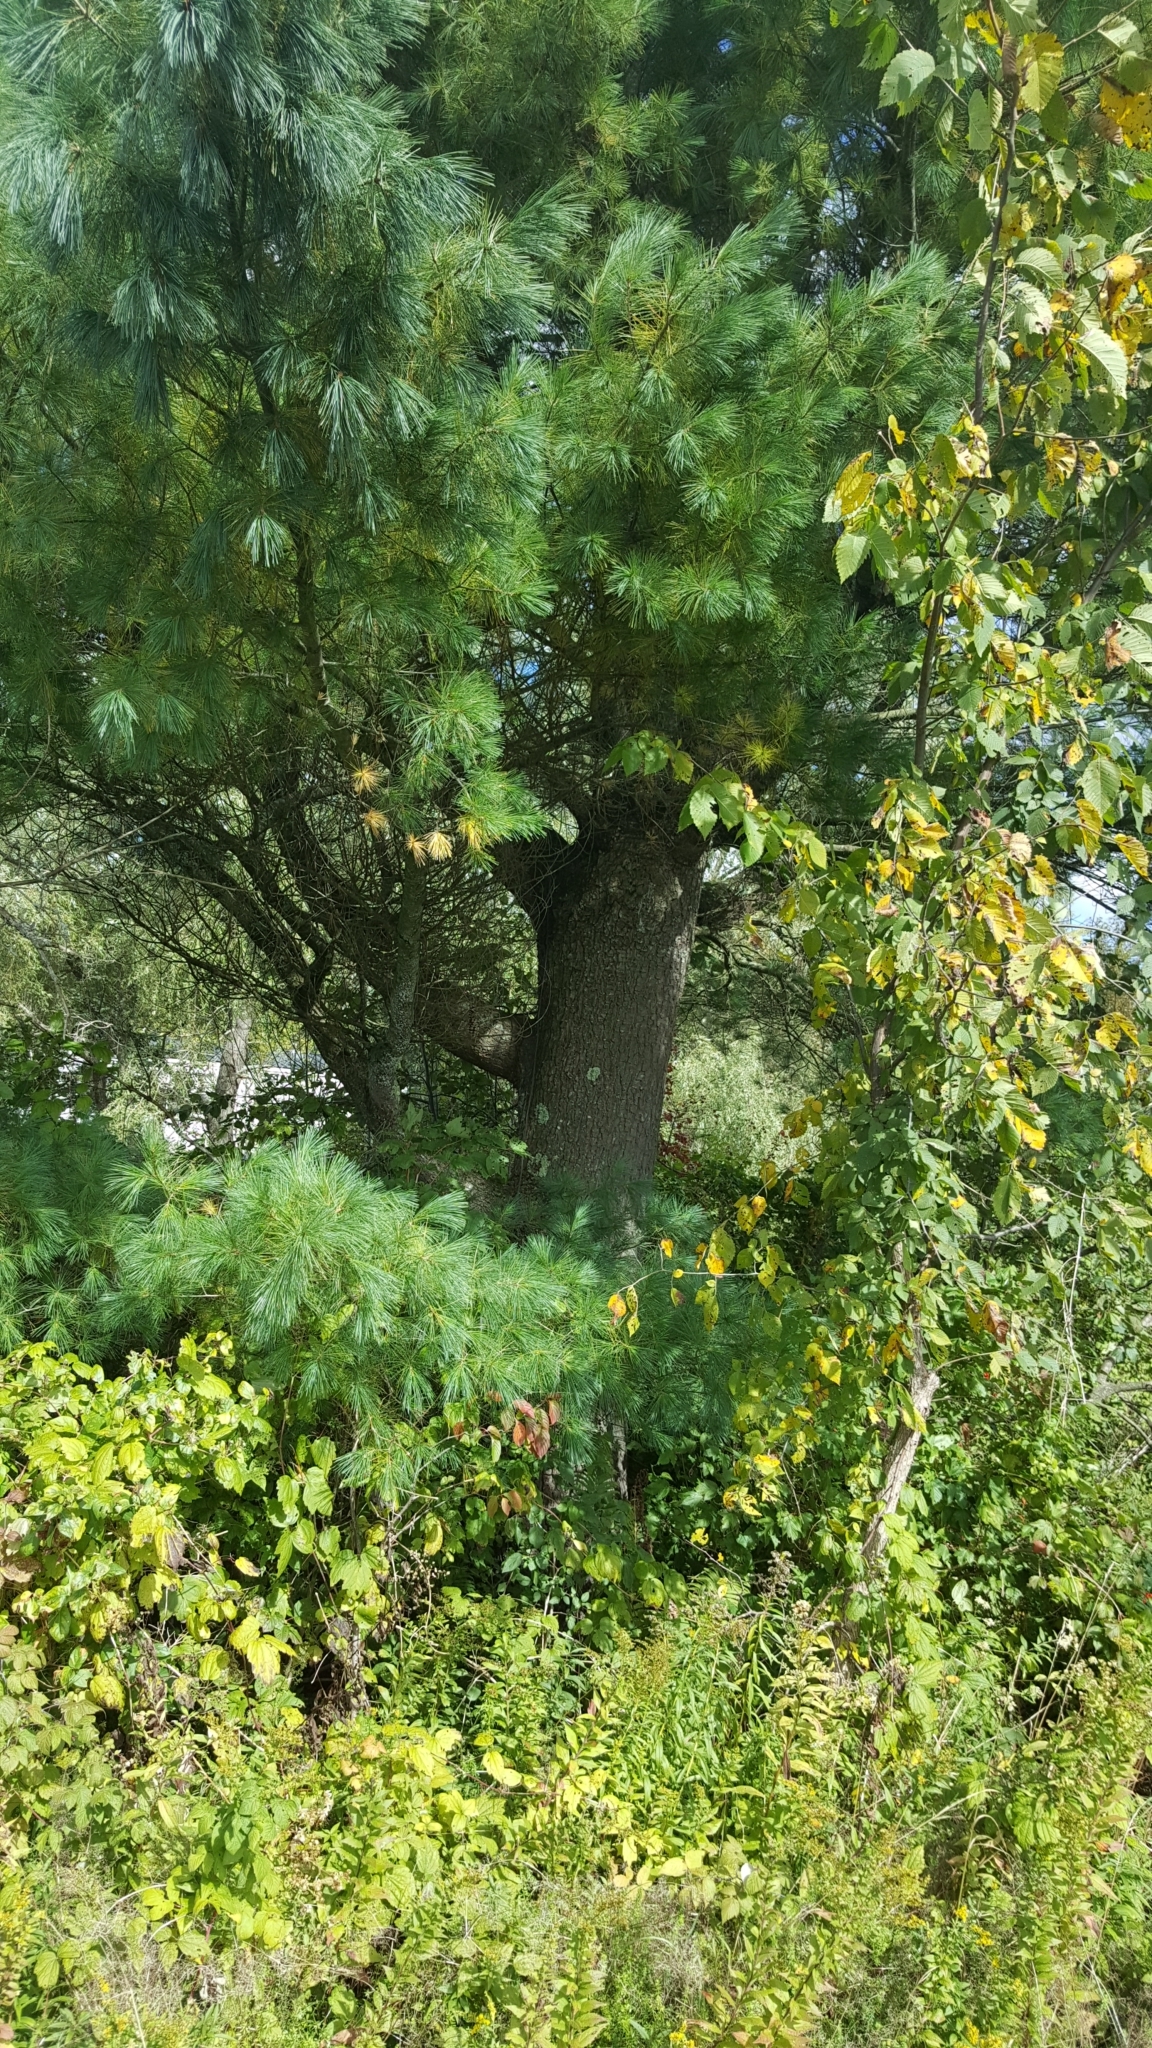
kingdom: Plantae
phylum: Tracheophyta
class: Pinopsida
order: Pinales
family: Pinaceae
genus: Pinus
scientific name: Pinus strobus
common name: Weymouth pine
